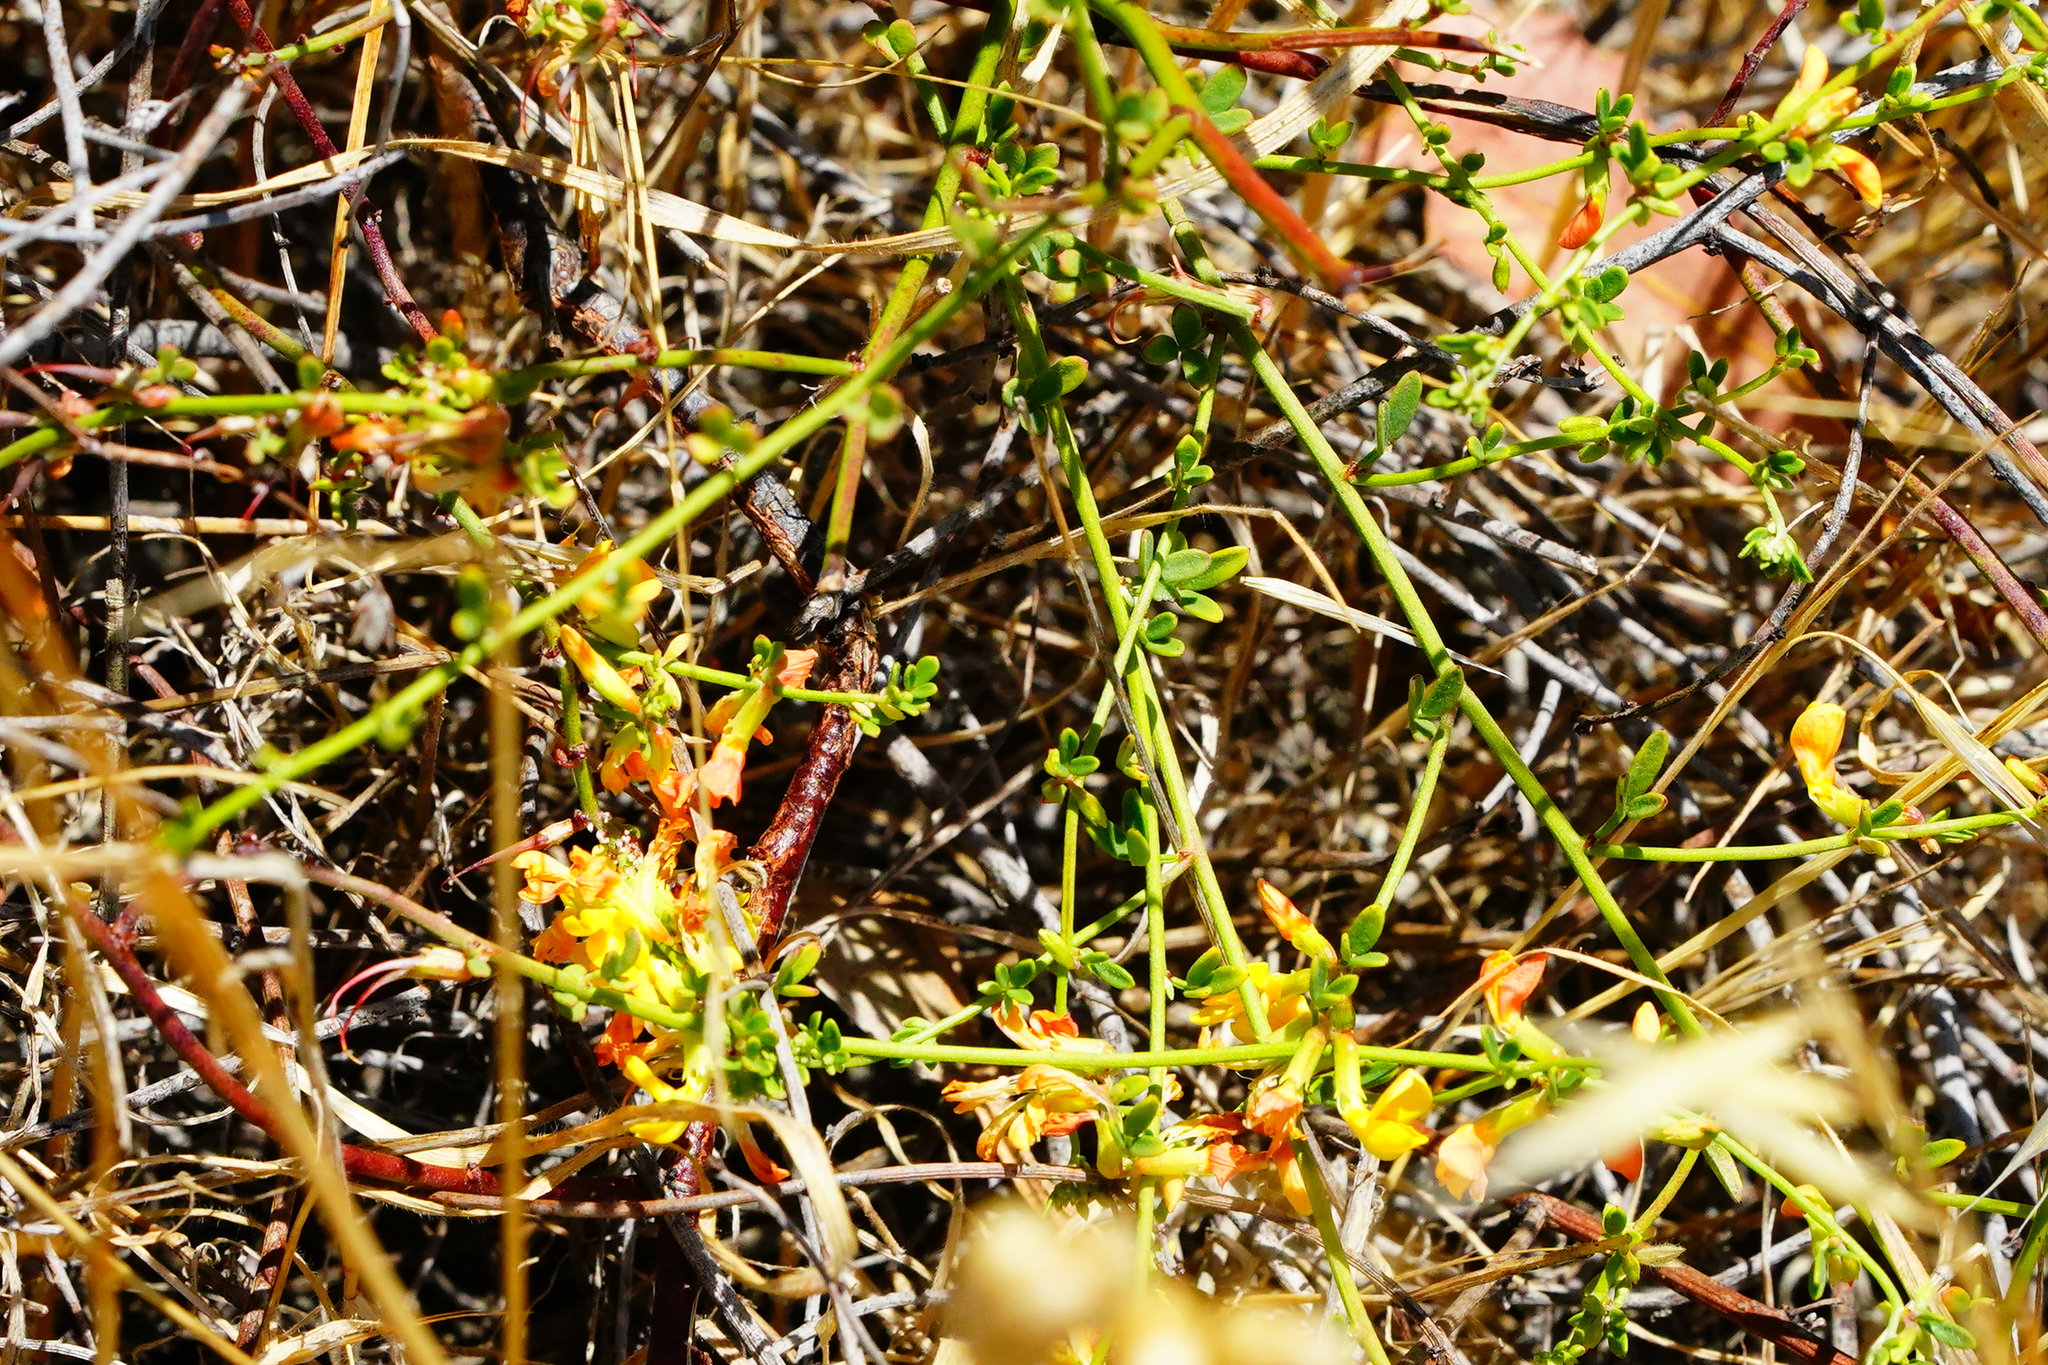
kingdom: Plantae
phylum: Tracheophyta
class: Magnoliopsida
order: Fabales
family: Fabaceae
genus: Acmispon
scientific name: Acmispon glaber
